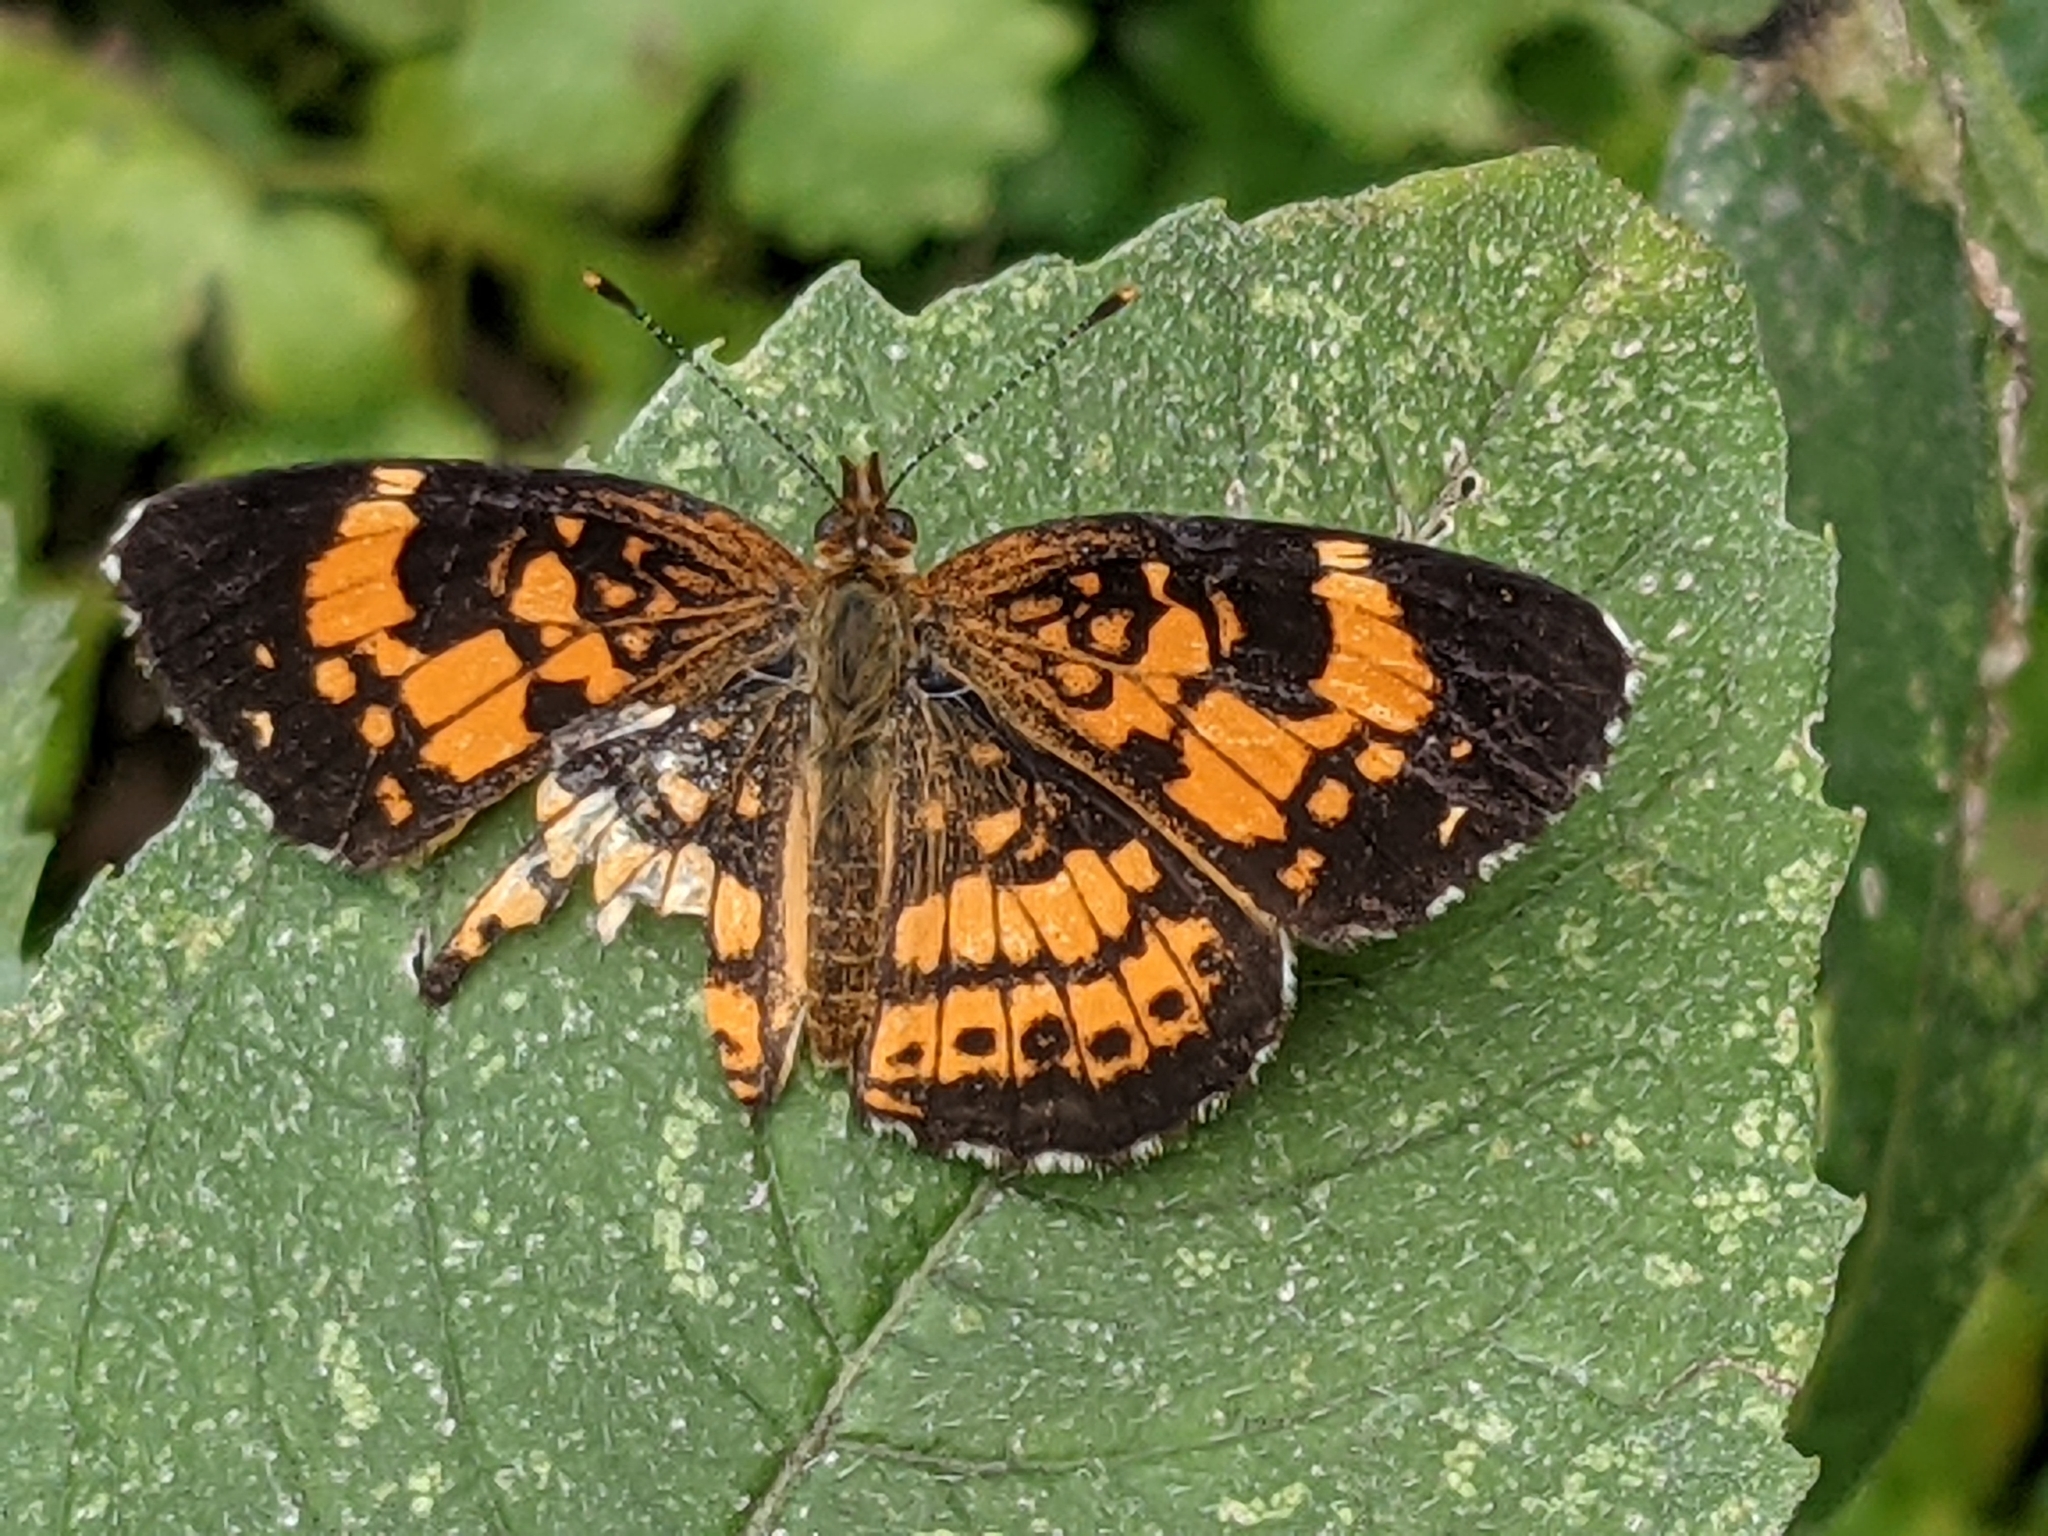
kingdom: Animalia
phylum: Arthropoda
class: Insecta
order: Lepidoptera
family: Nymphalidae
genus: Chlosyne
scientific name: Chlosyne nycteis
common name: Silvery checkerspot
